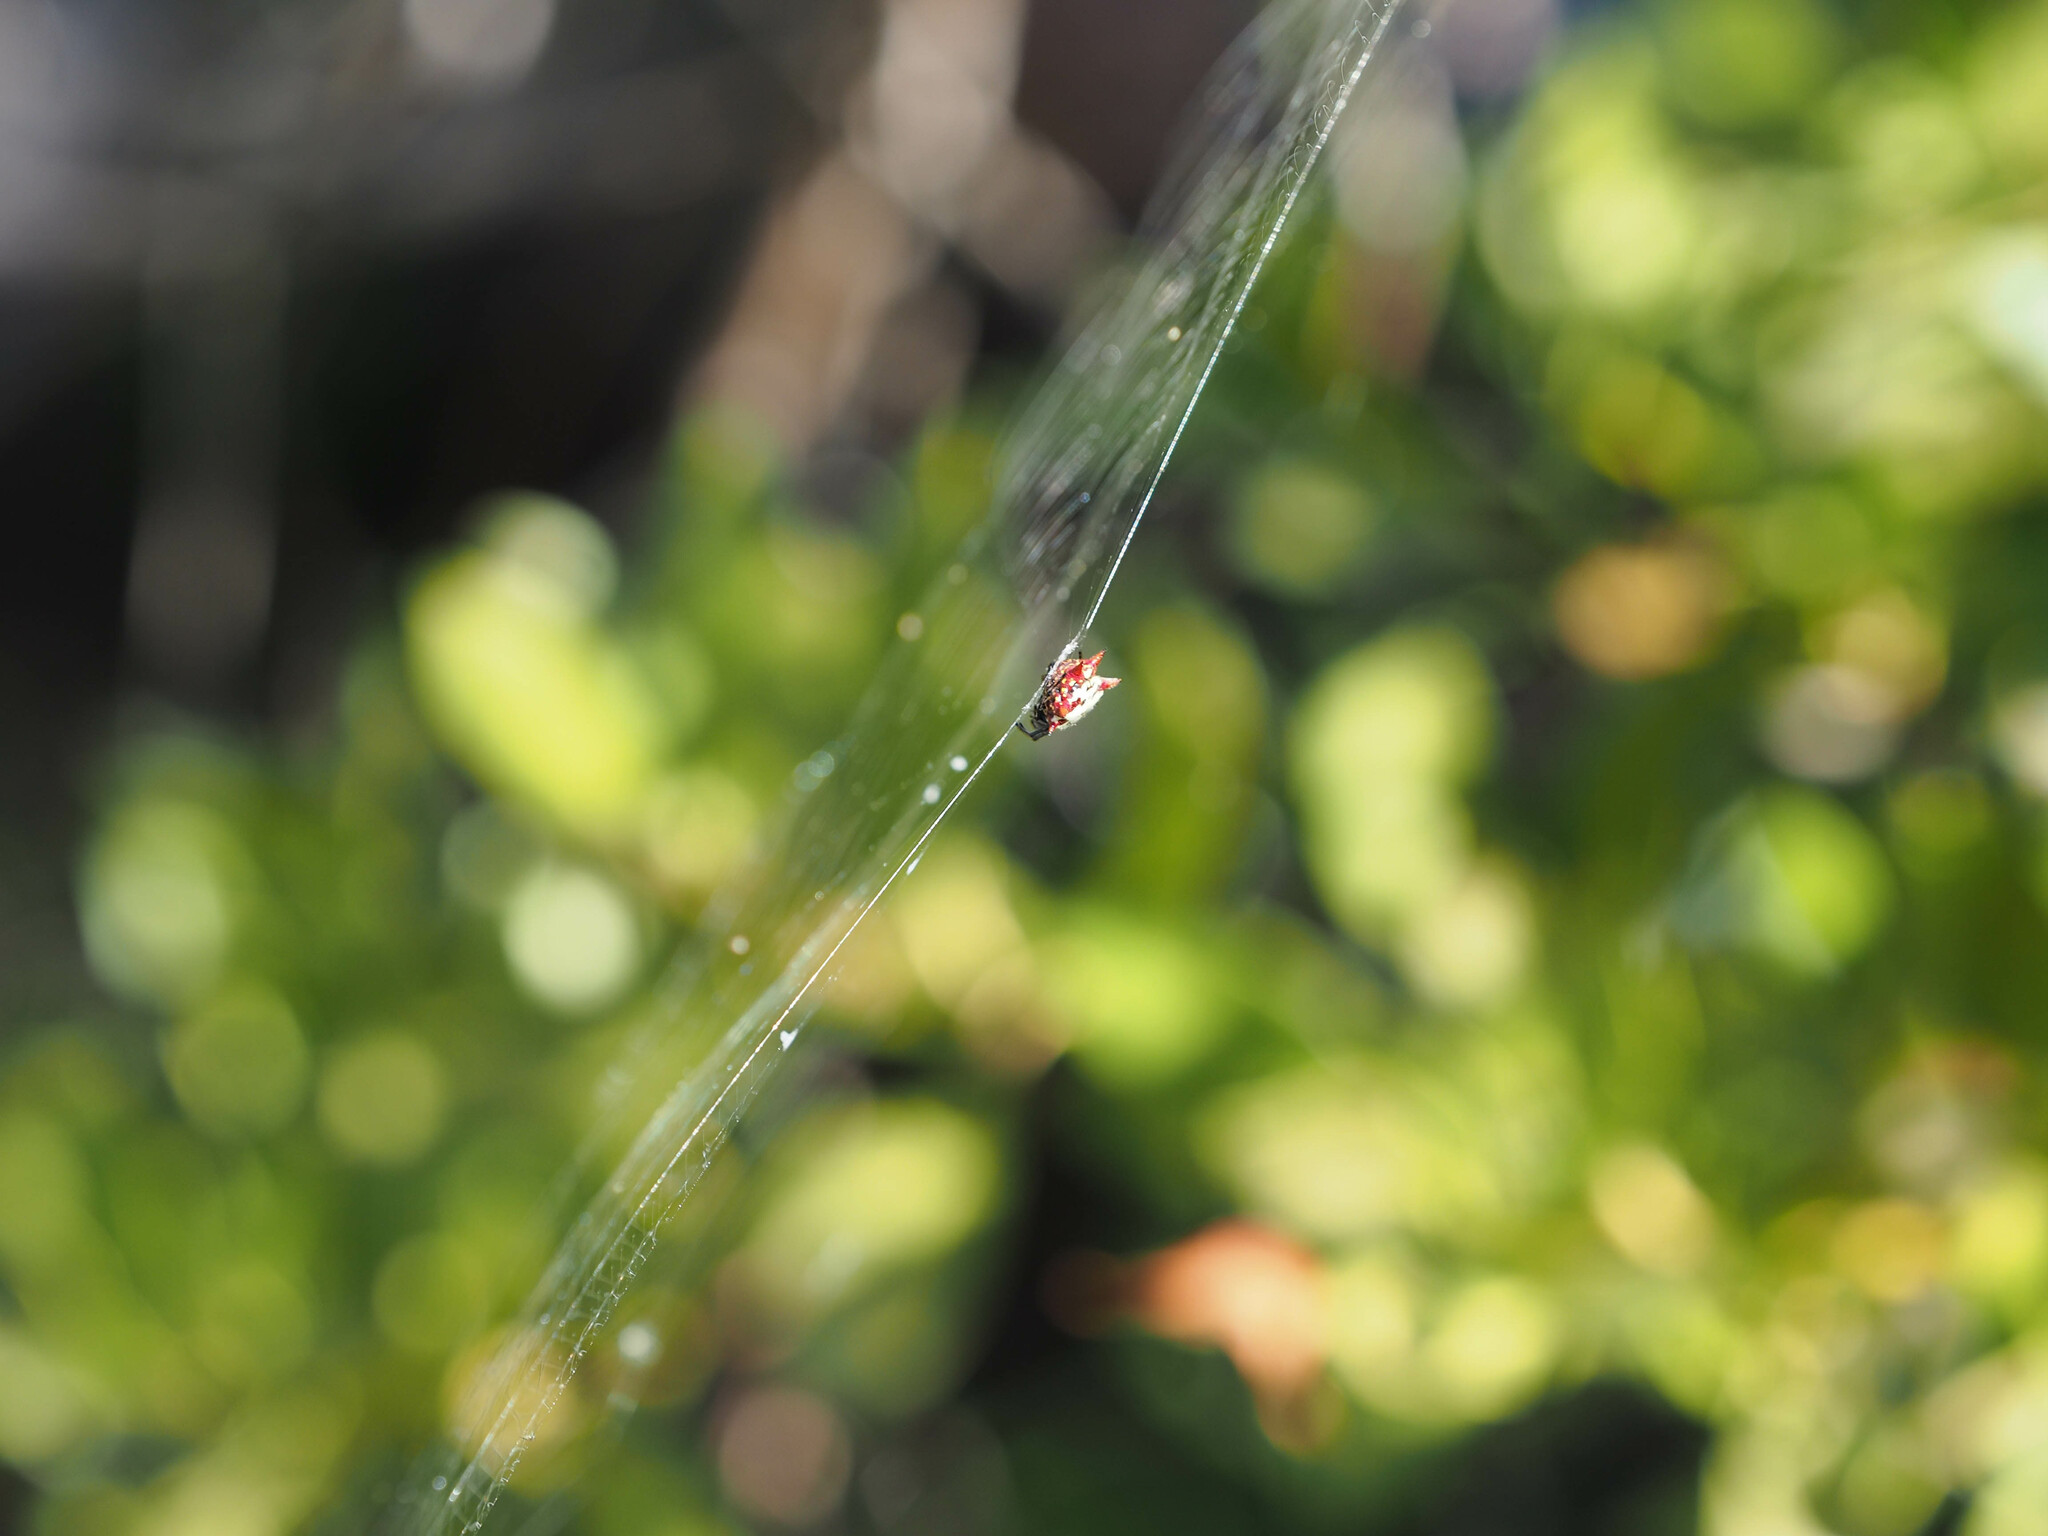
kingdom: Animalia
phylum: Arthropoda
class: Arachnida
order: Araneae
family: Araneidae
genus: Gasteracantha
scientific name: Gasteracantha cancriformis
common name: Orb weavers
